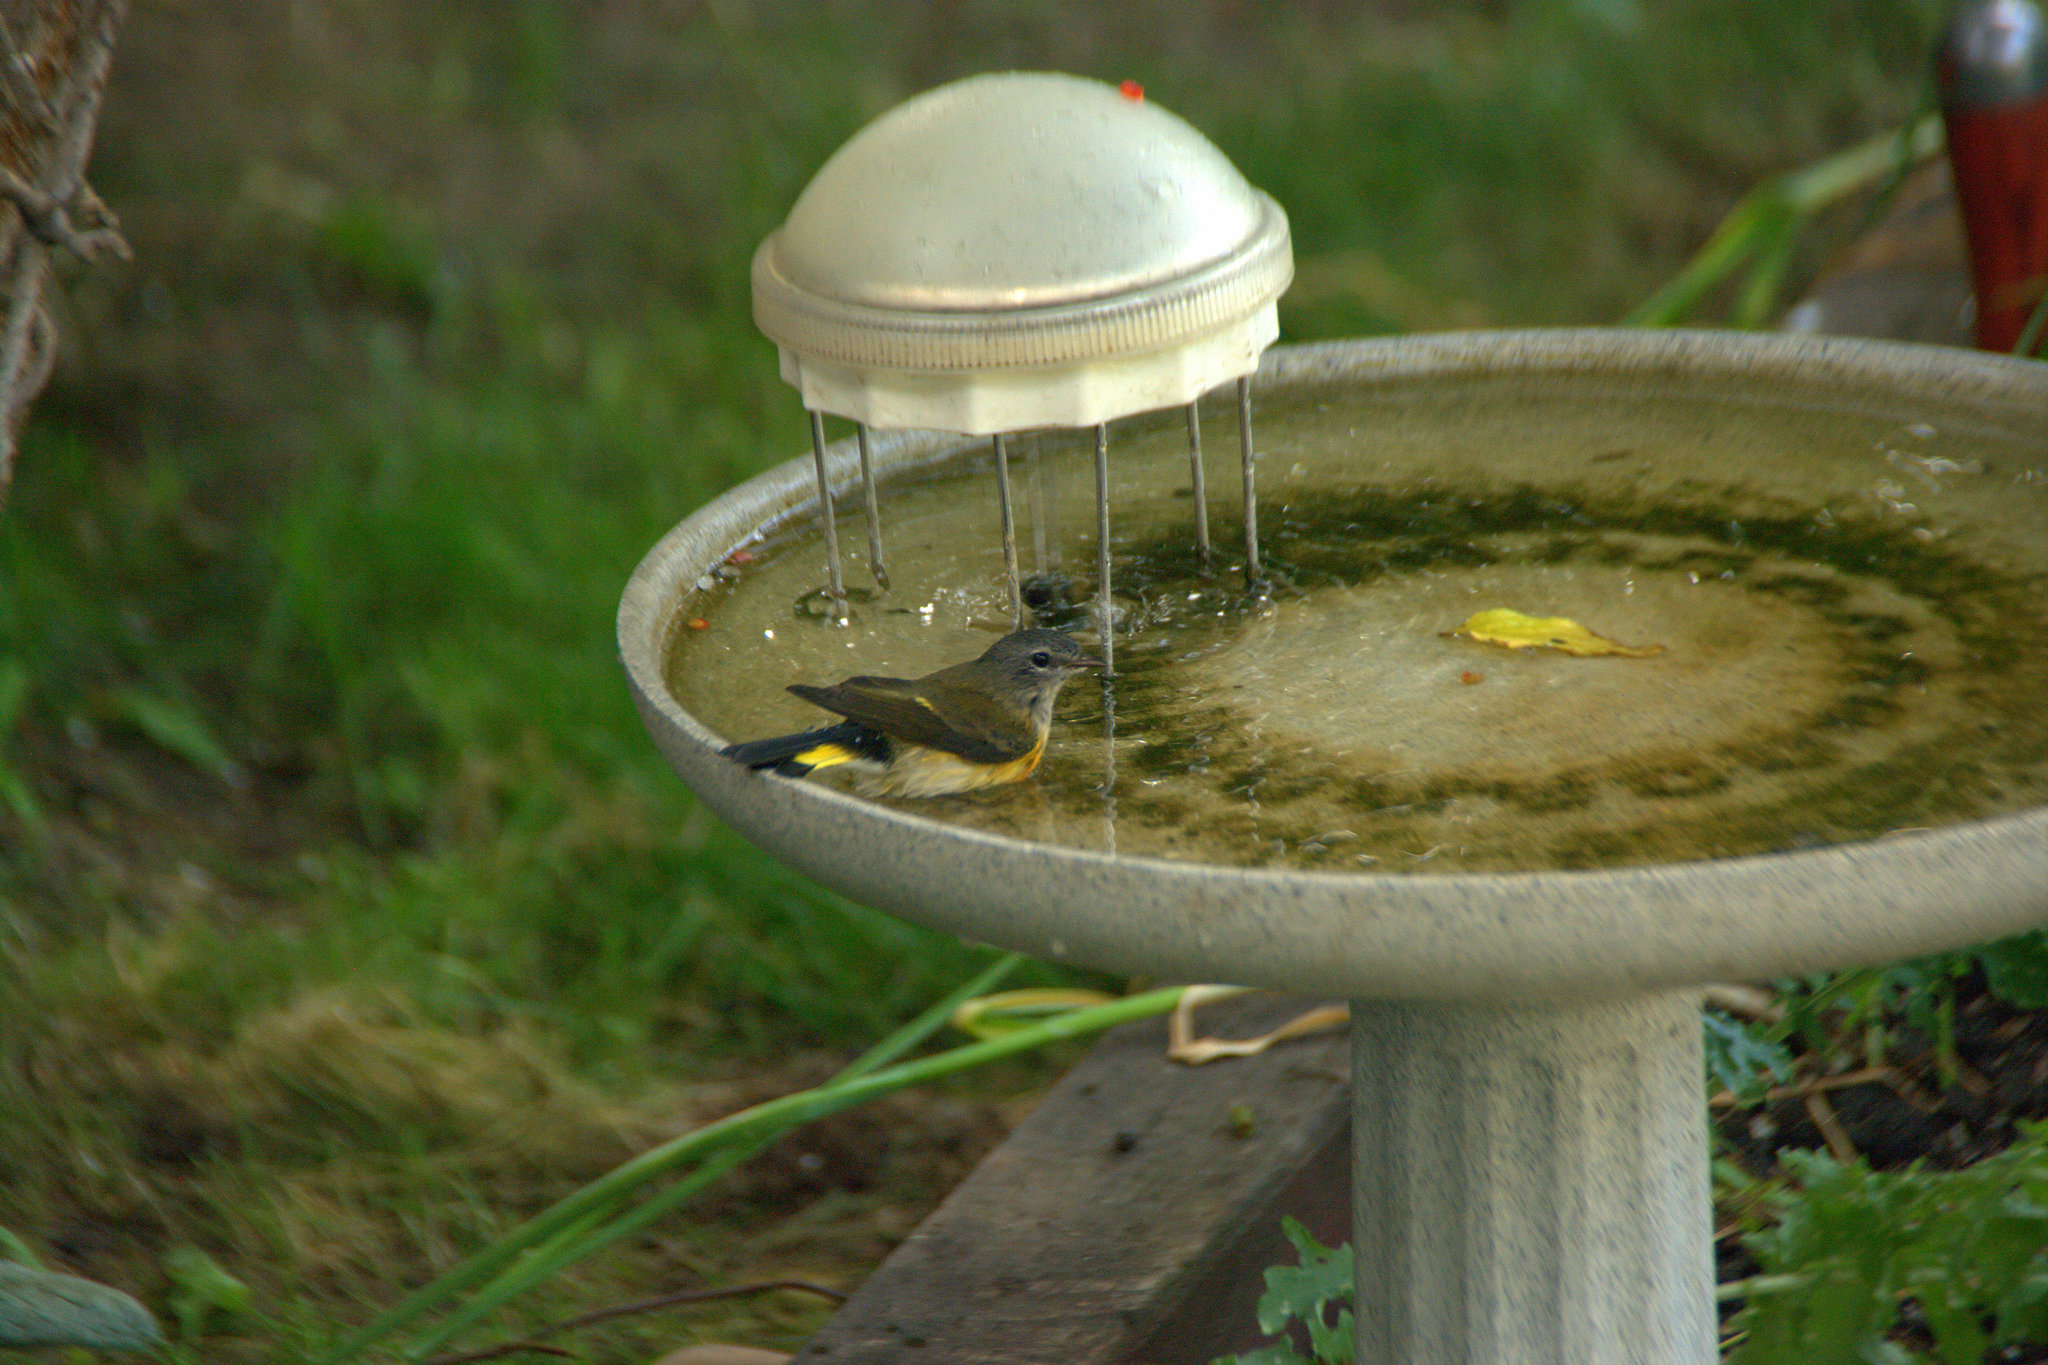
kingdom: Animalia
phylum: Chordata
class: Aves
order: Passeriformes
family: Parulidae
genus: Setophaga
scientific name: Setophaga ruticilla
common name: American redstart
